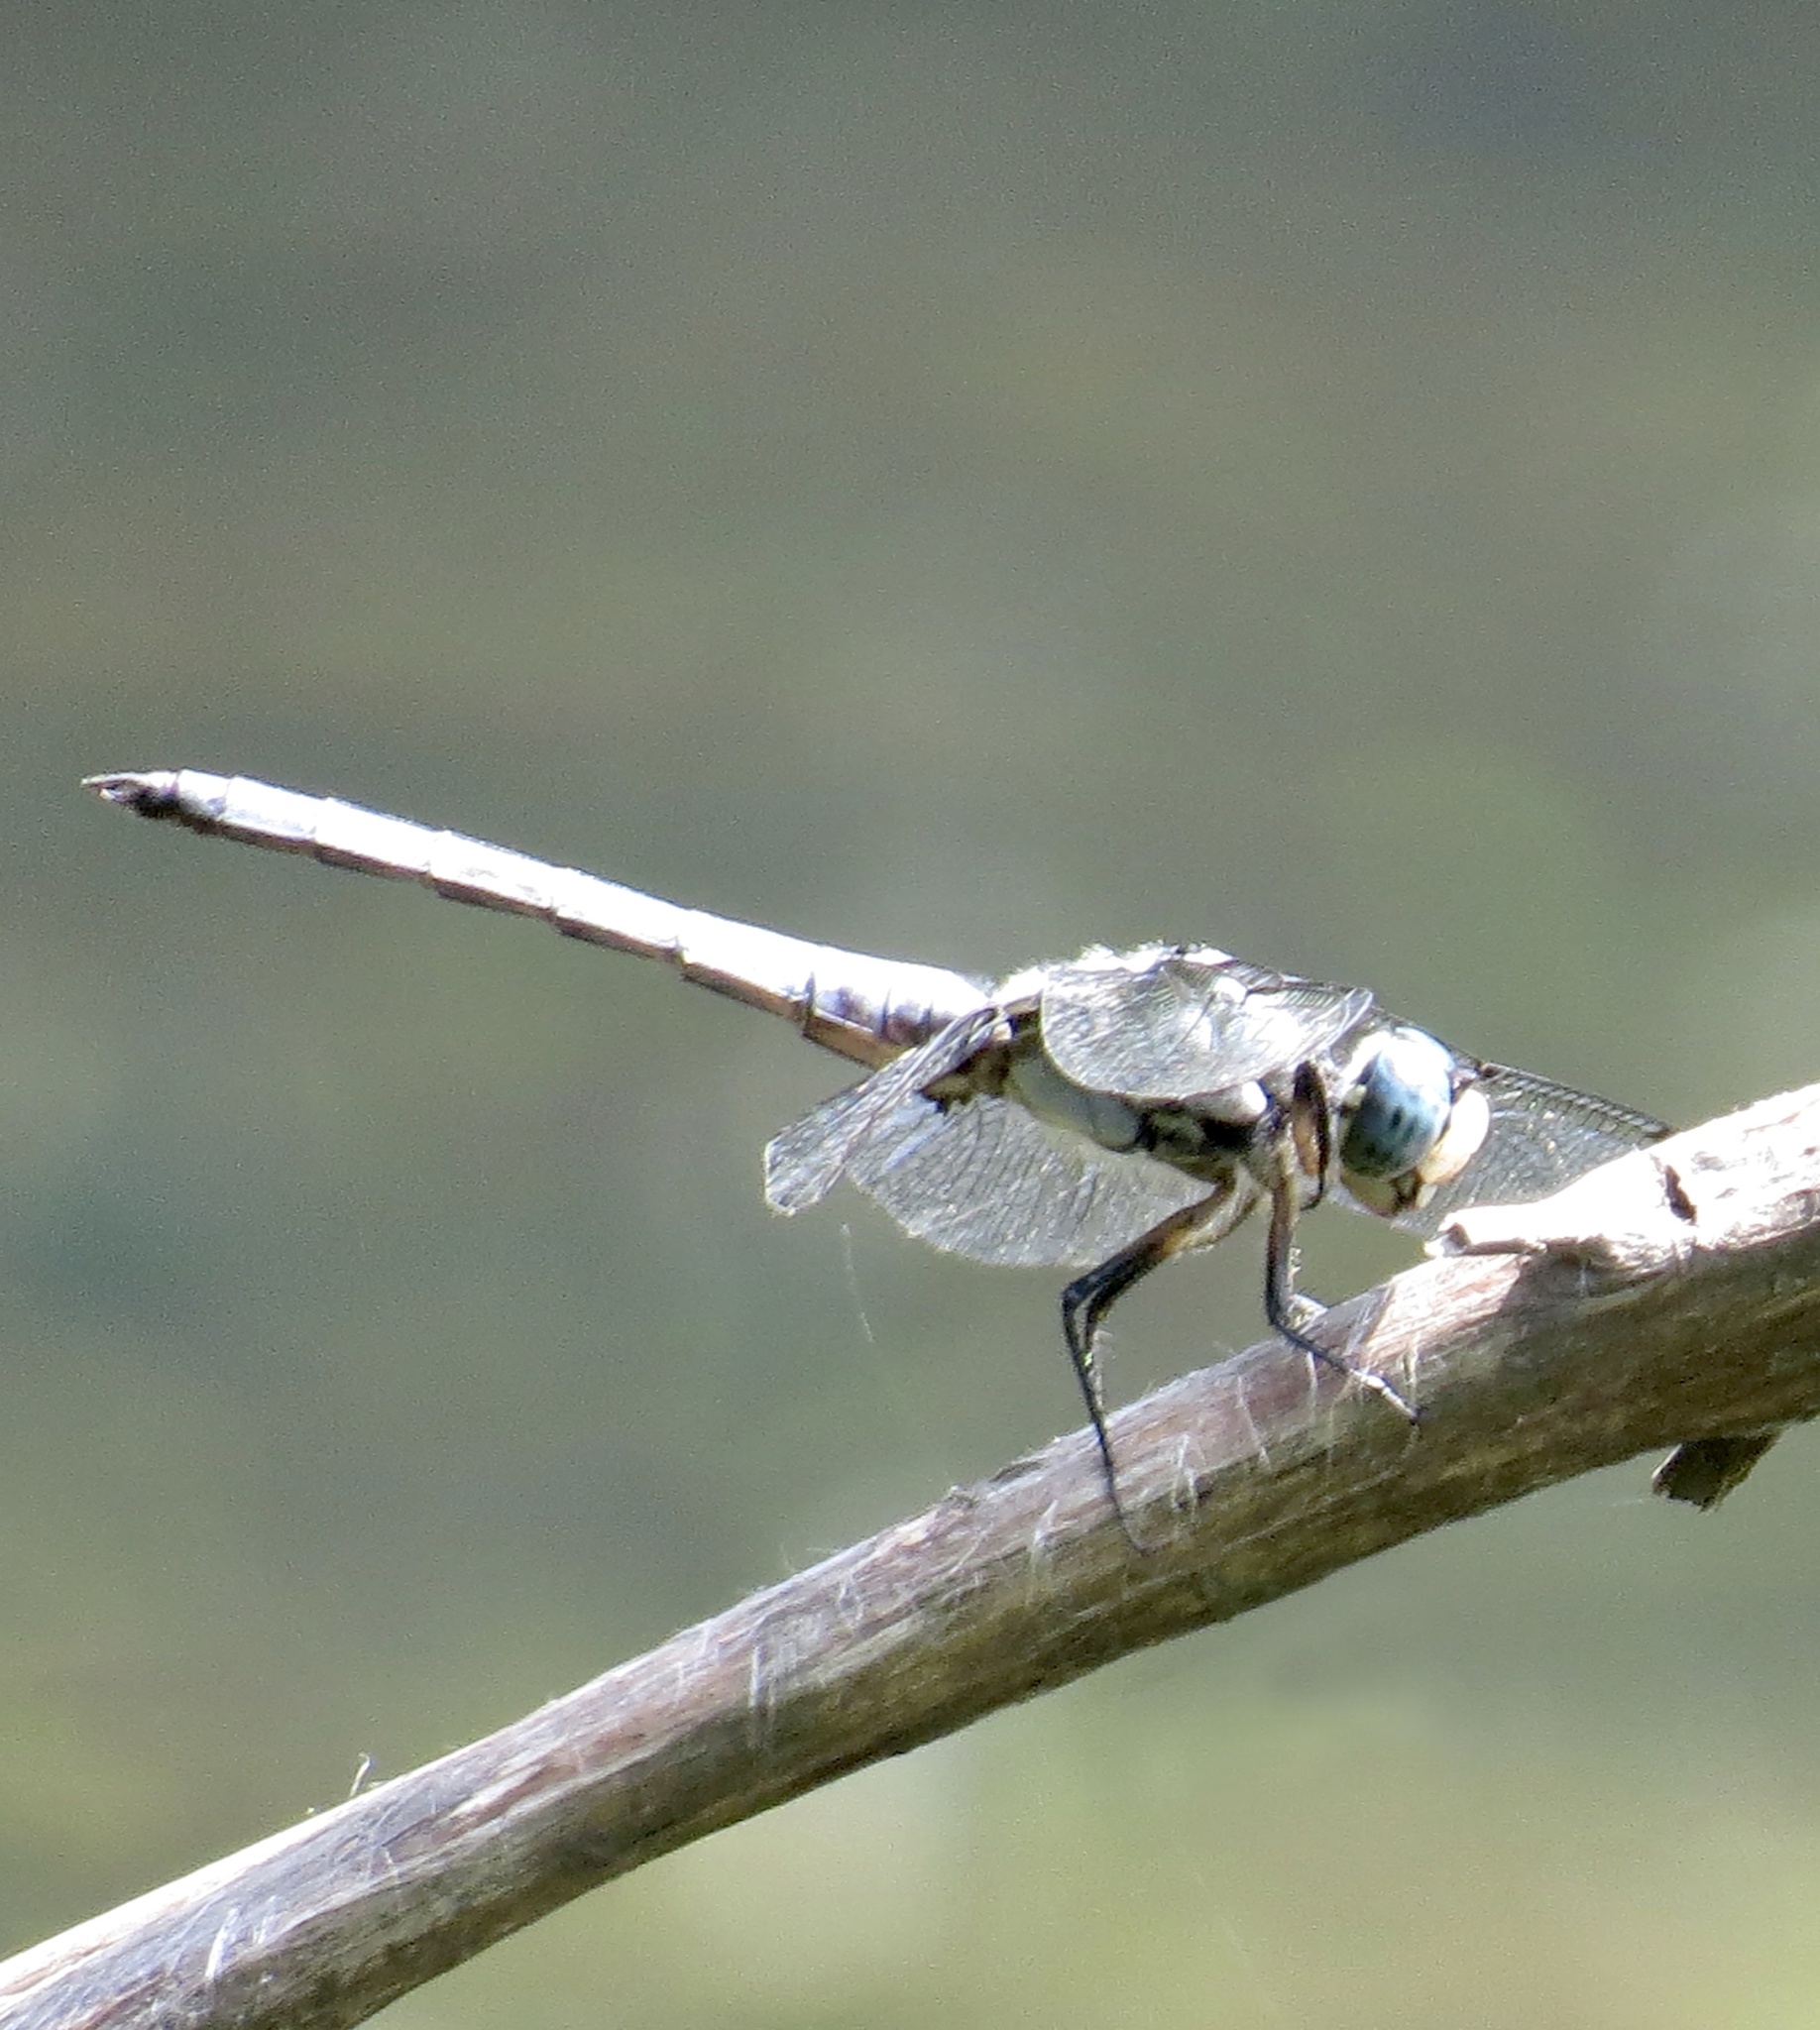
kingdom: Animalia
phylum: Arthropoda
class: Insecta
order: Odonata
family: Libellulidae
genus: Libellula
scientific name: Libellula vibrans
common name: Great blue skimmer
